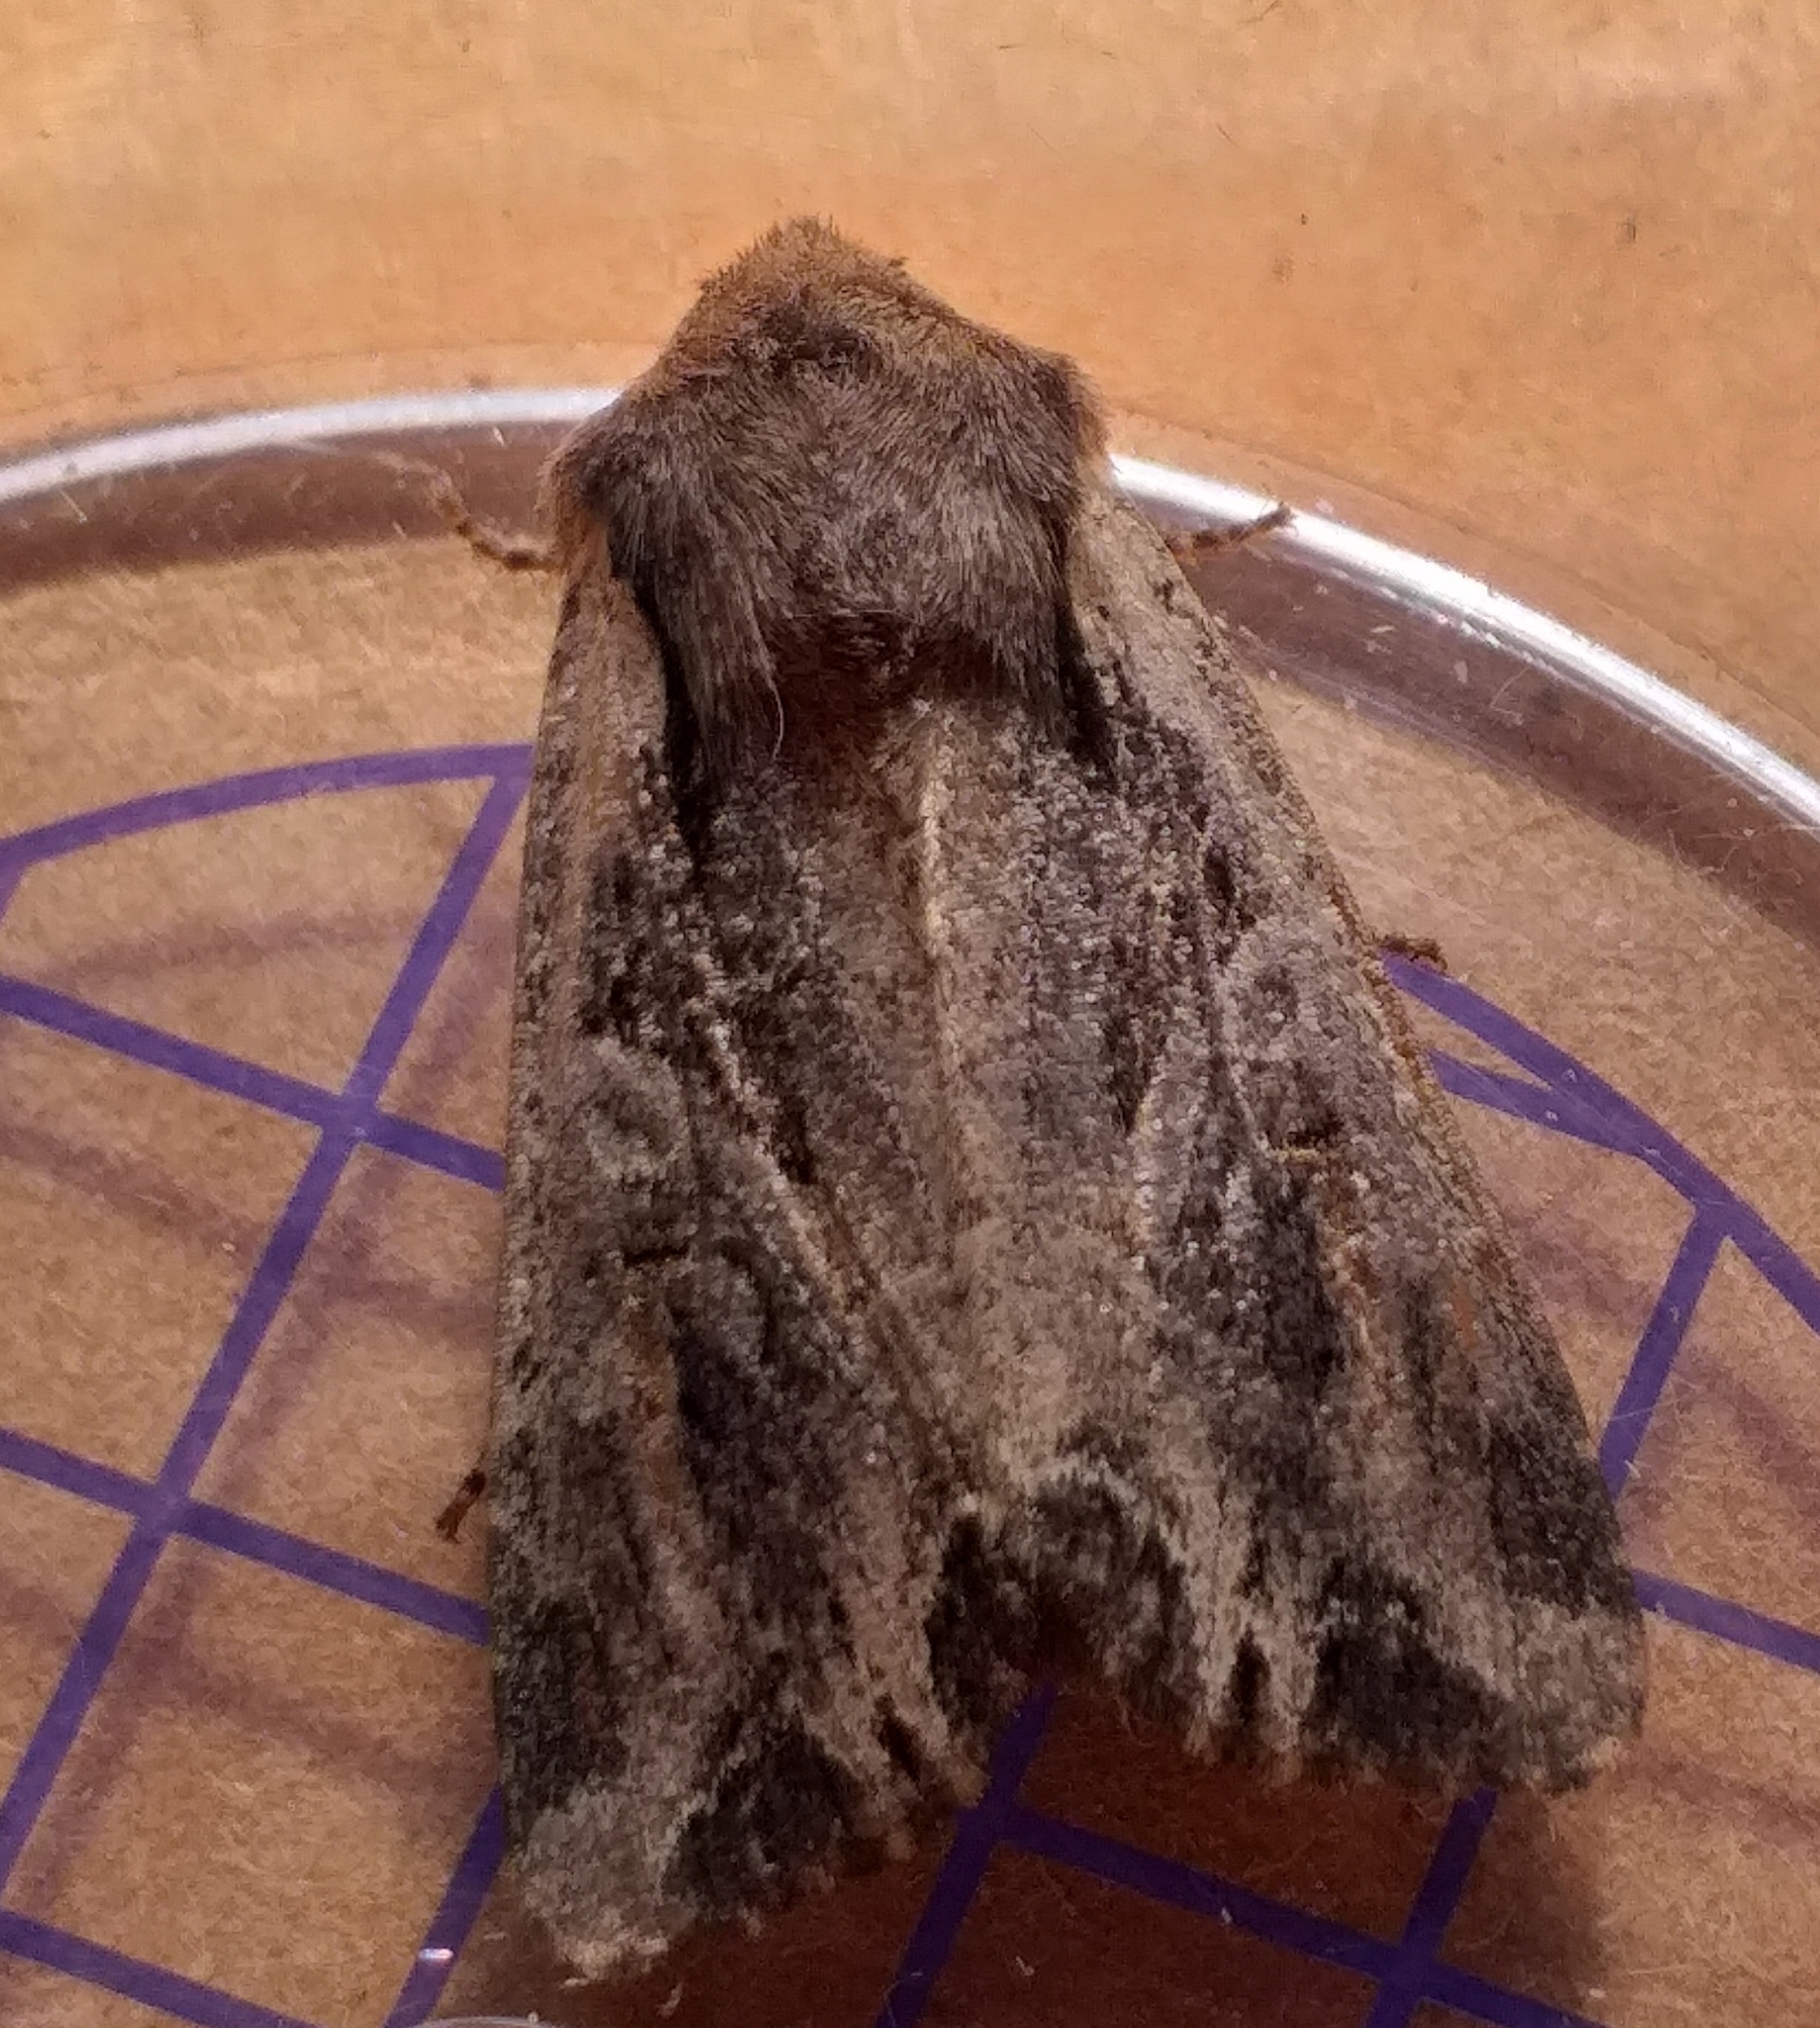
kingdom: Animalia
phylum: Arthropoda
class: Insecta
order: Lepidoptera
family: Noctuidae
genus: Lacanobia
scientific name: Lacanobia suasa
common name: Dog's tooth
